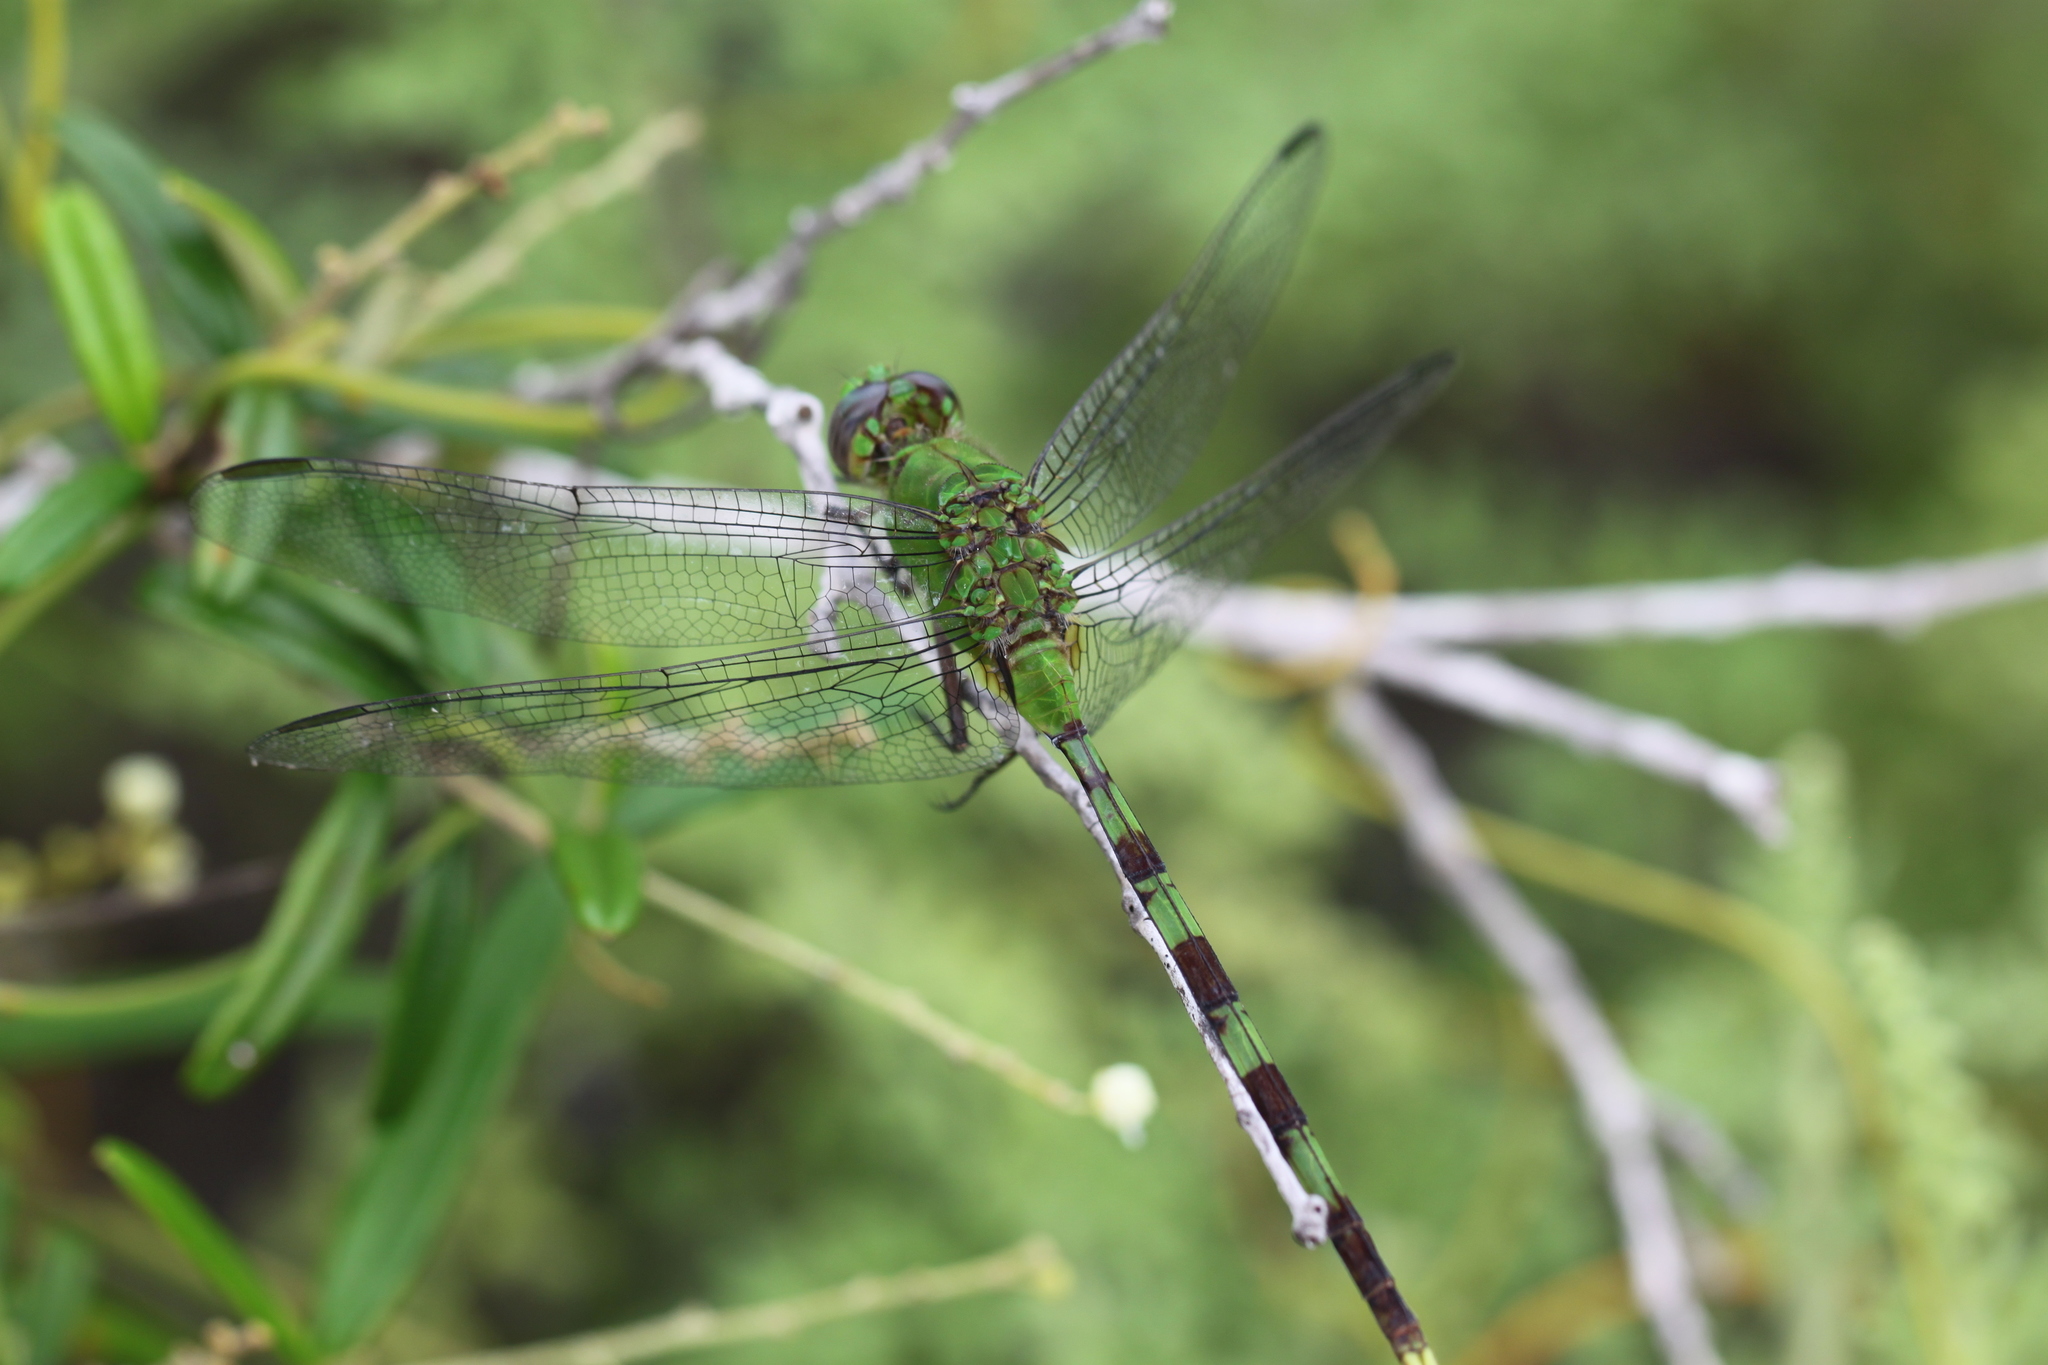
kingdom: Animalia
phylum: Arthropoda
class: Insecta
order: Odonata
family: Libellulidae
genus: Erythemis
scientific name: Erythemis vesiculosa
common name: Great pondhawk
